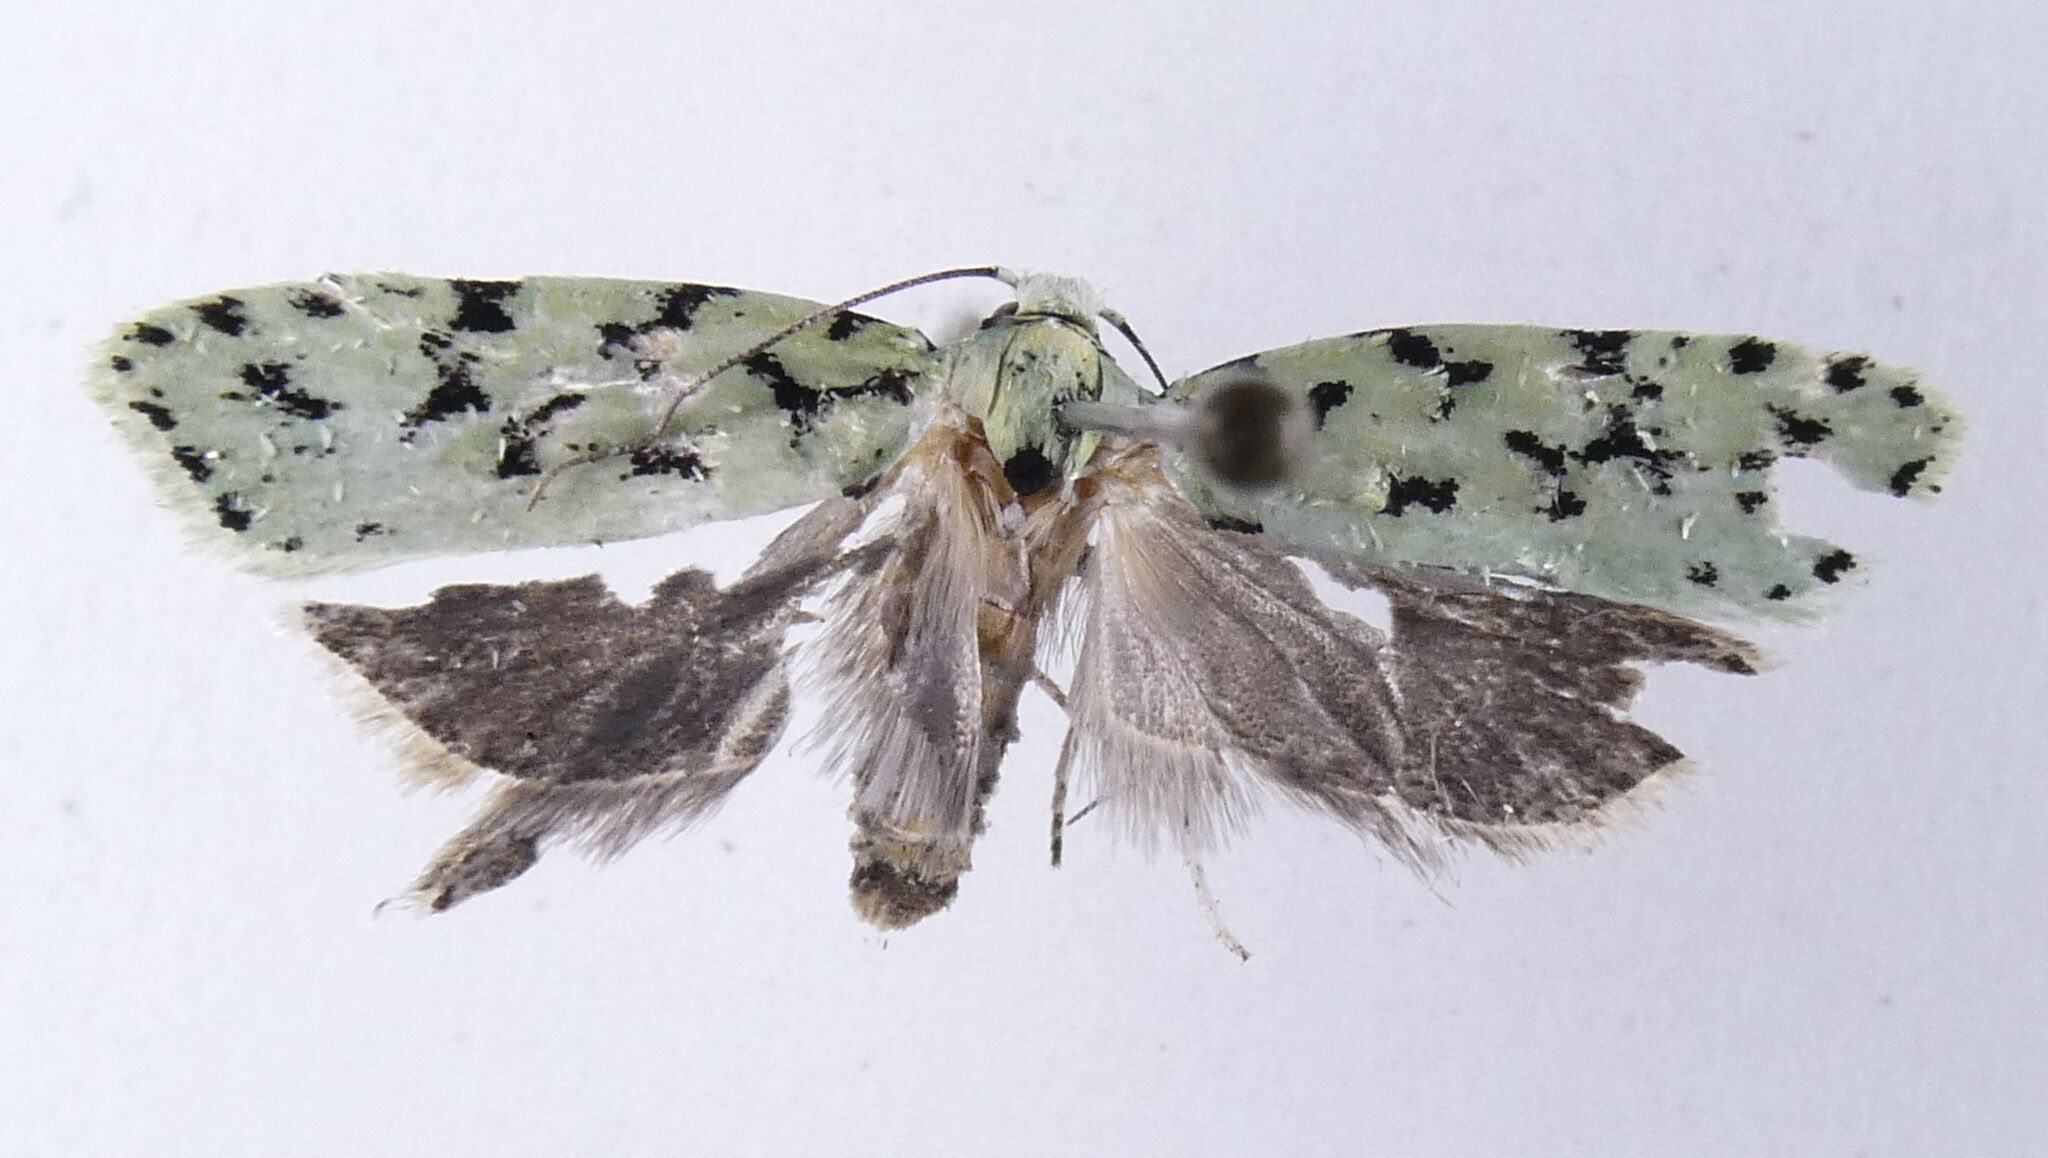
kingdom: Animalia
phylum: Arthropoda
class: Insecta
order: Lepidoptera
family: Oecophoridae
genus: Izatha
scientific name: Izatha huttoni
